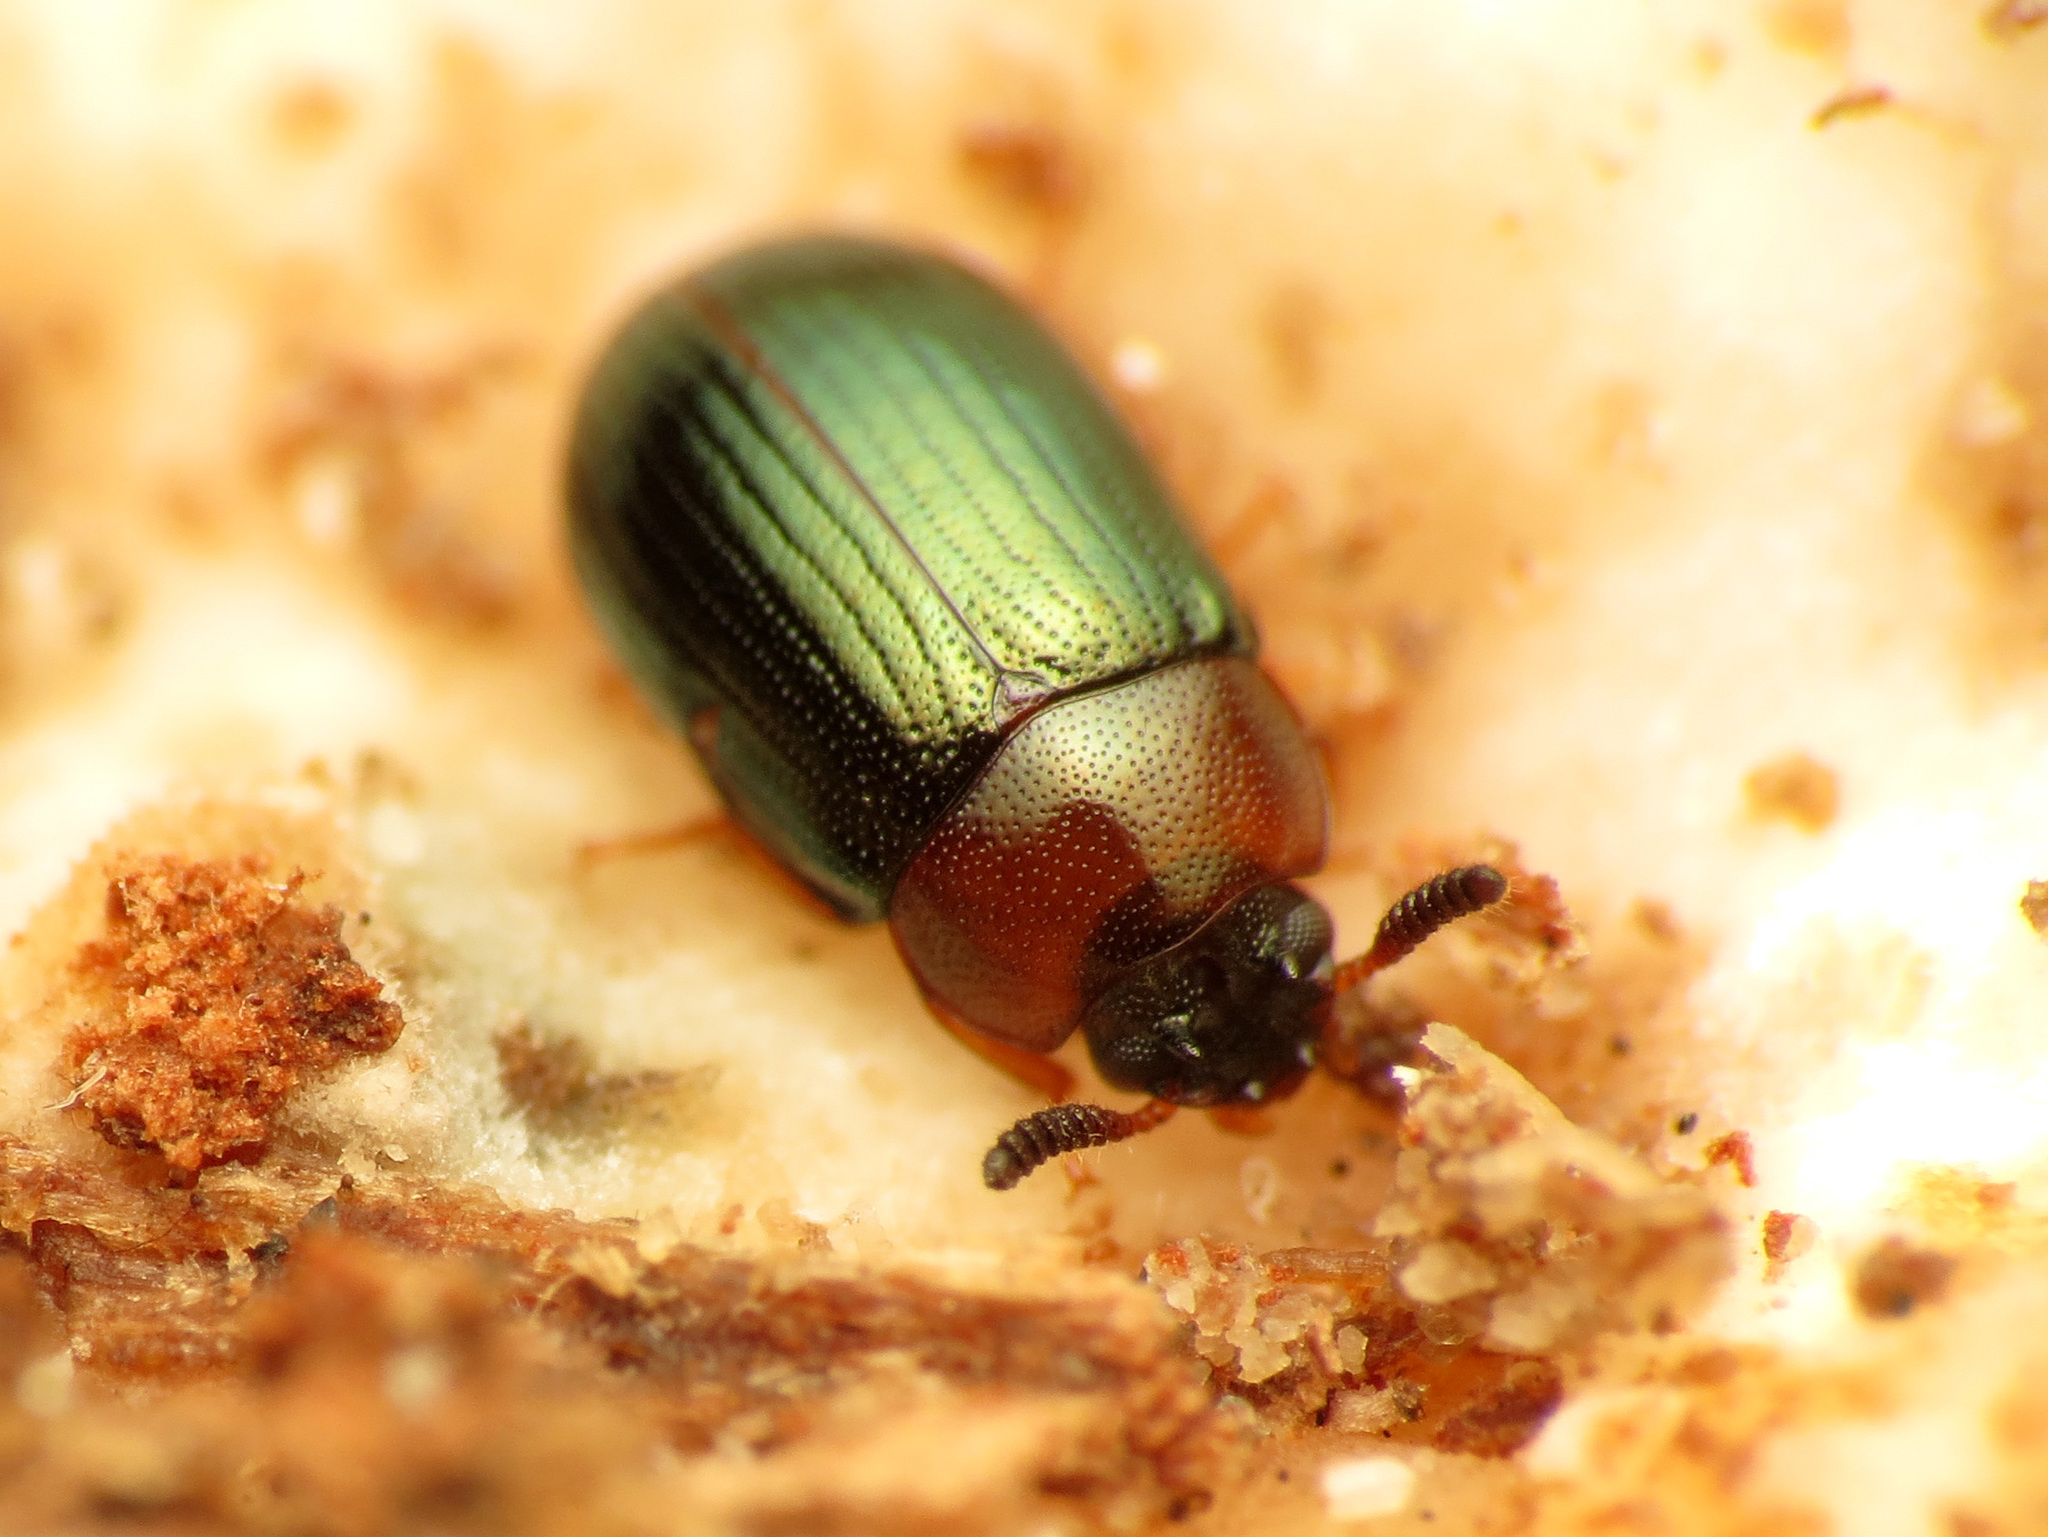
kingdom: Animalia
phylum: Arthropoda
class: Insecta
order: Coleoptera
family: Tenebrionidae
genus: Neomida
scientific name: Neomida bicornis
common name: Two-horned darkling beetle
